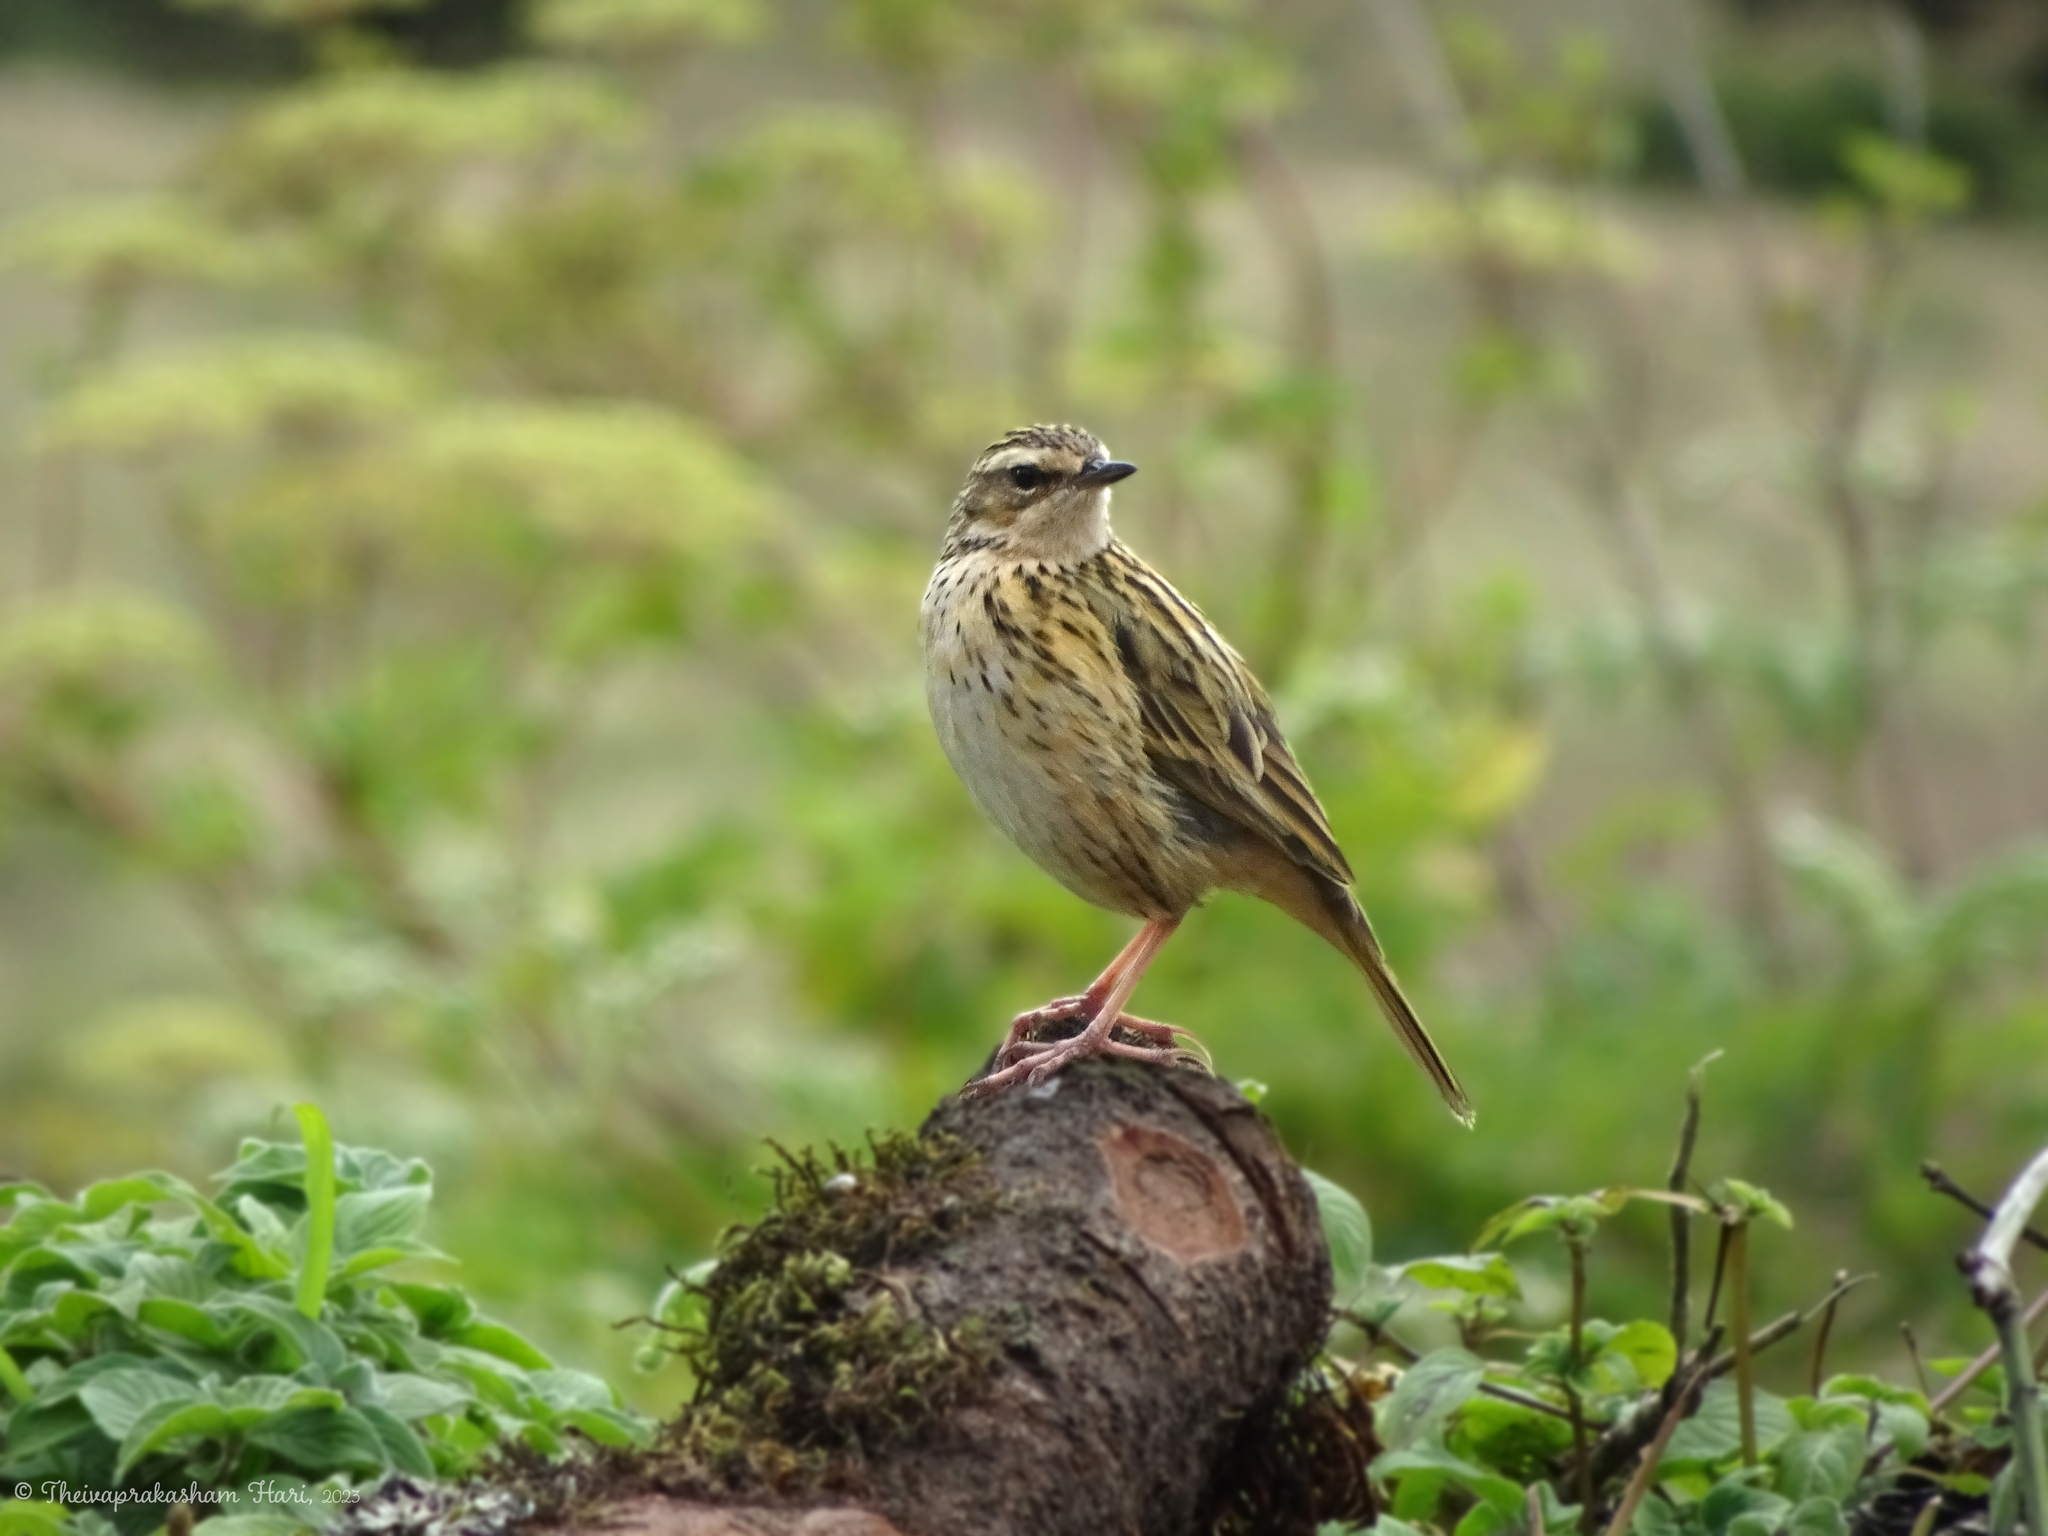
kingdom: Animalia
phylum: Chordata
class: Aves
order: Passeriformes
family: Motacillidae
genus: Anthus
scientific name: Anthus nilghiriensis
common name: Nilgiri pipit
